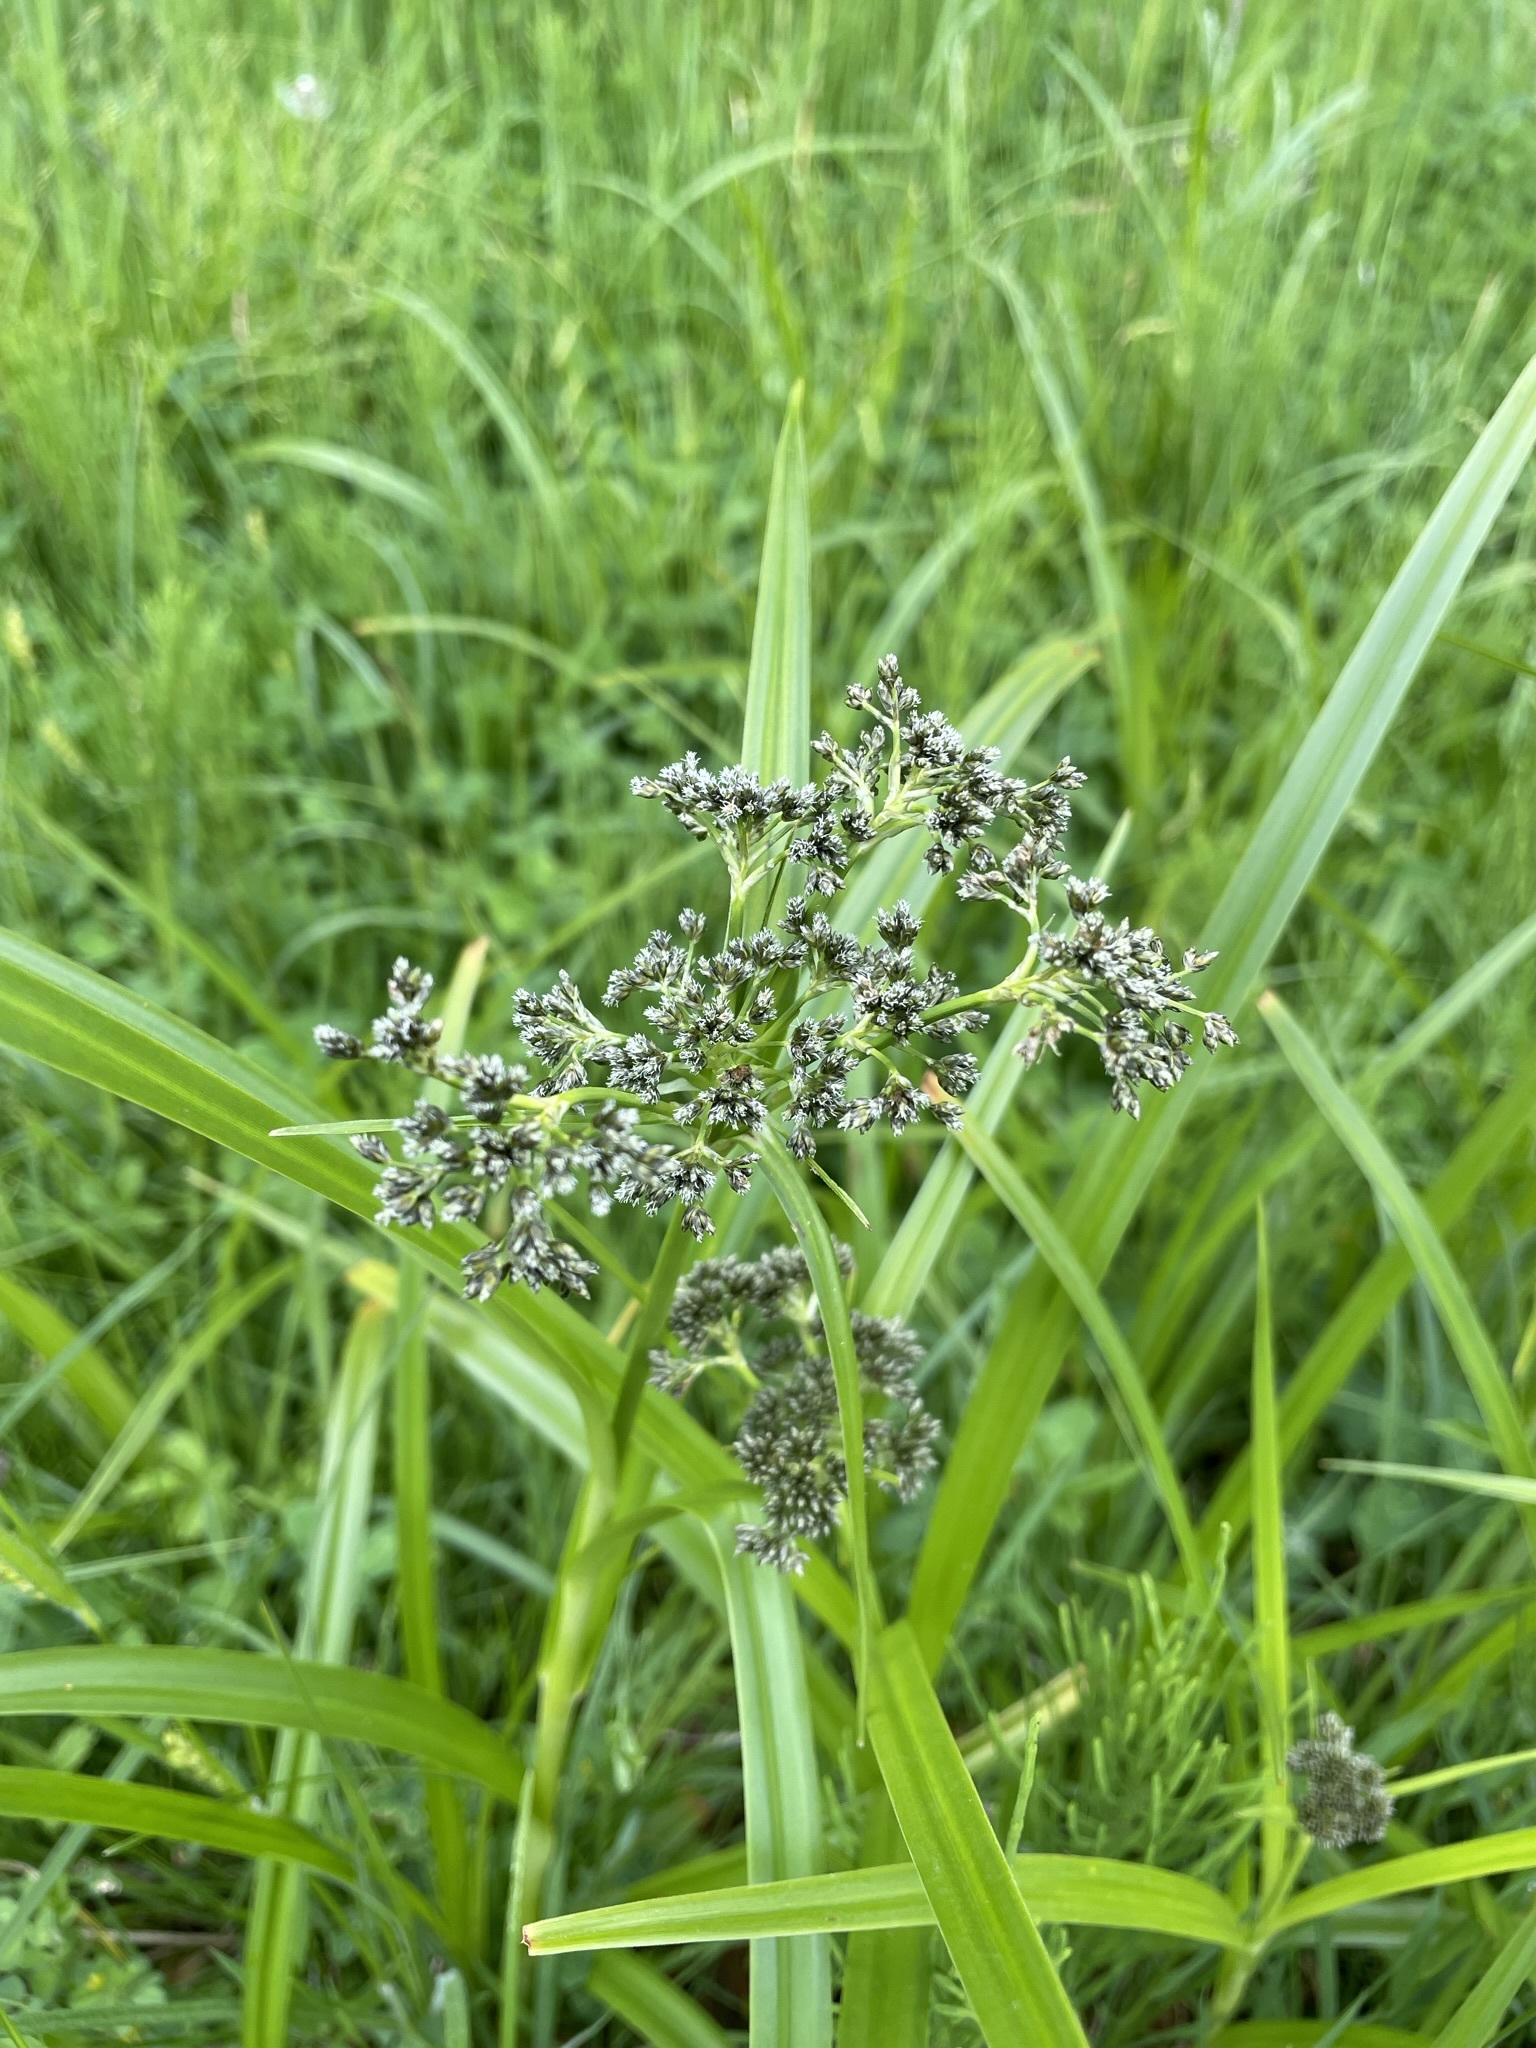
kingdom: Plantae
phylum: Tracheophyta
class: Liliopsida
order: Poales
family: Cyperaceae
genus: Scirpus
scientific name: Scirpus sylvaticus
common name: Wood club-rush
